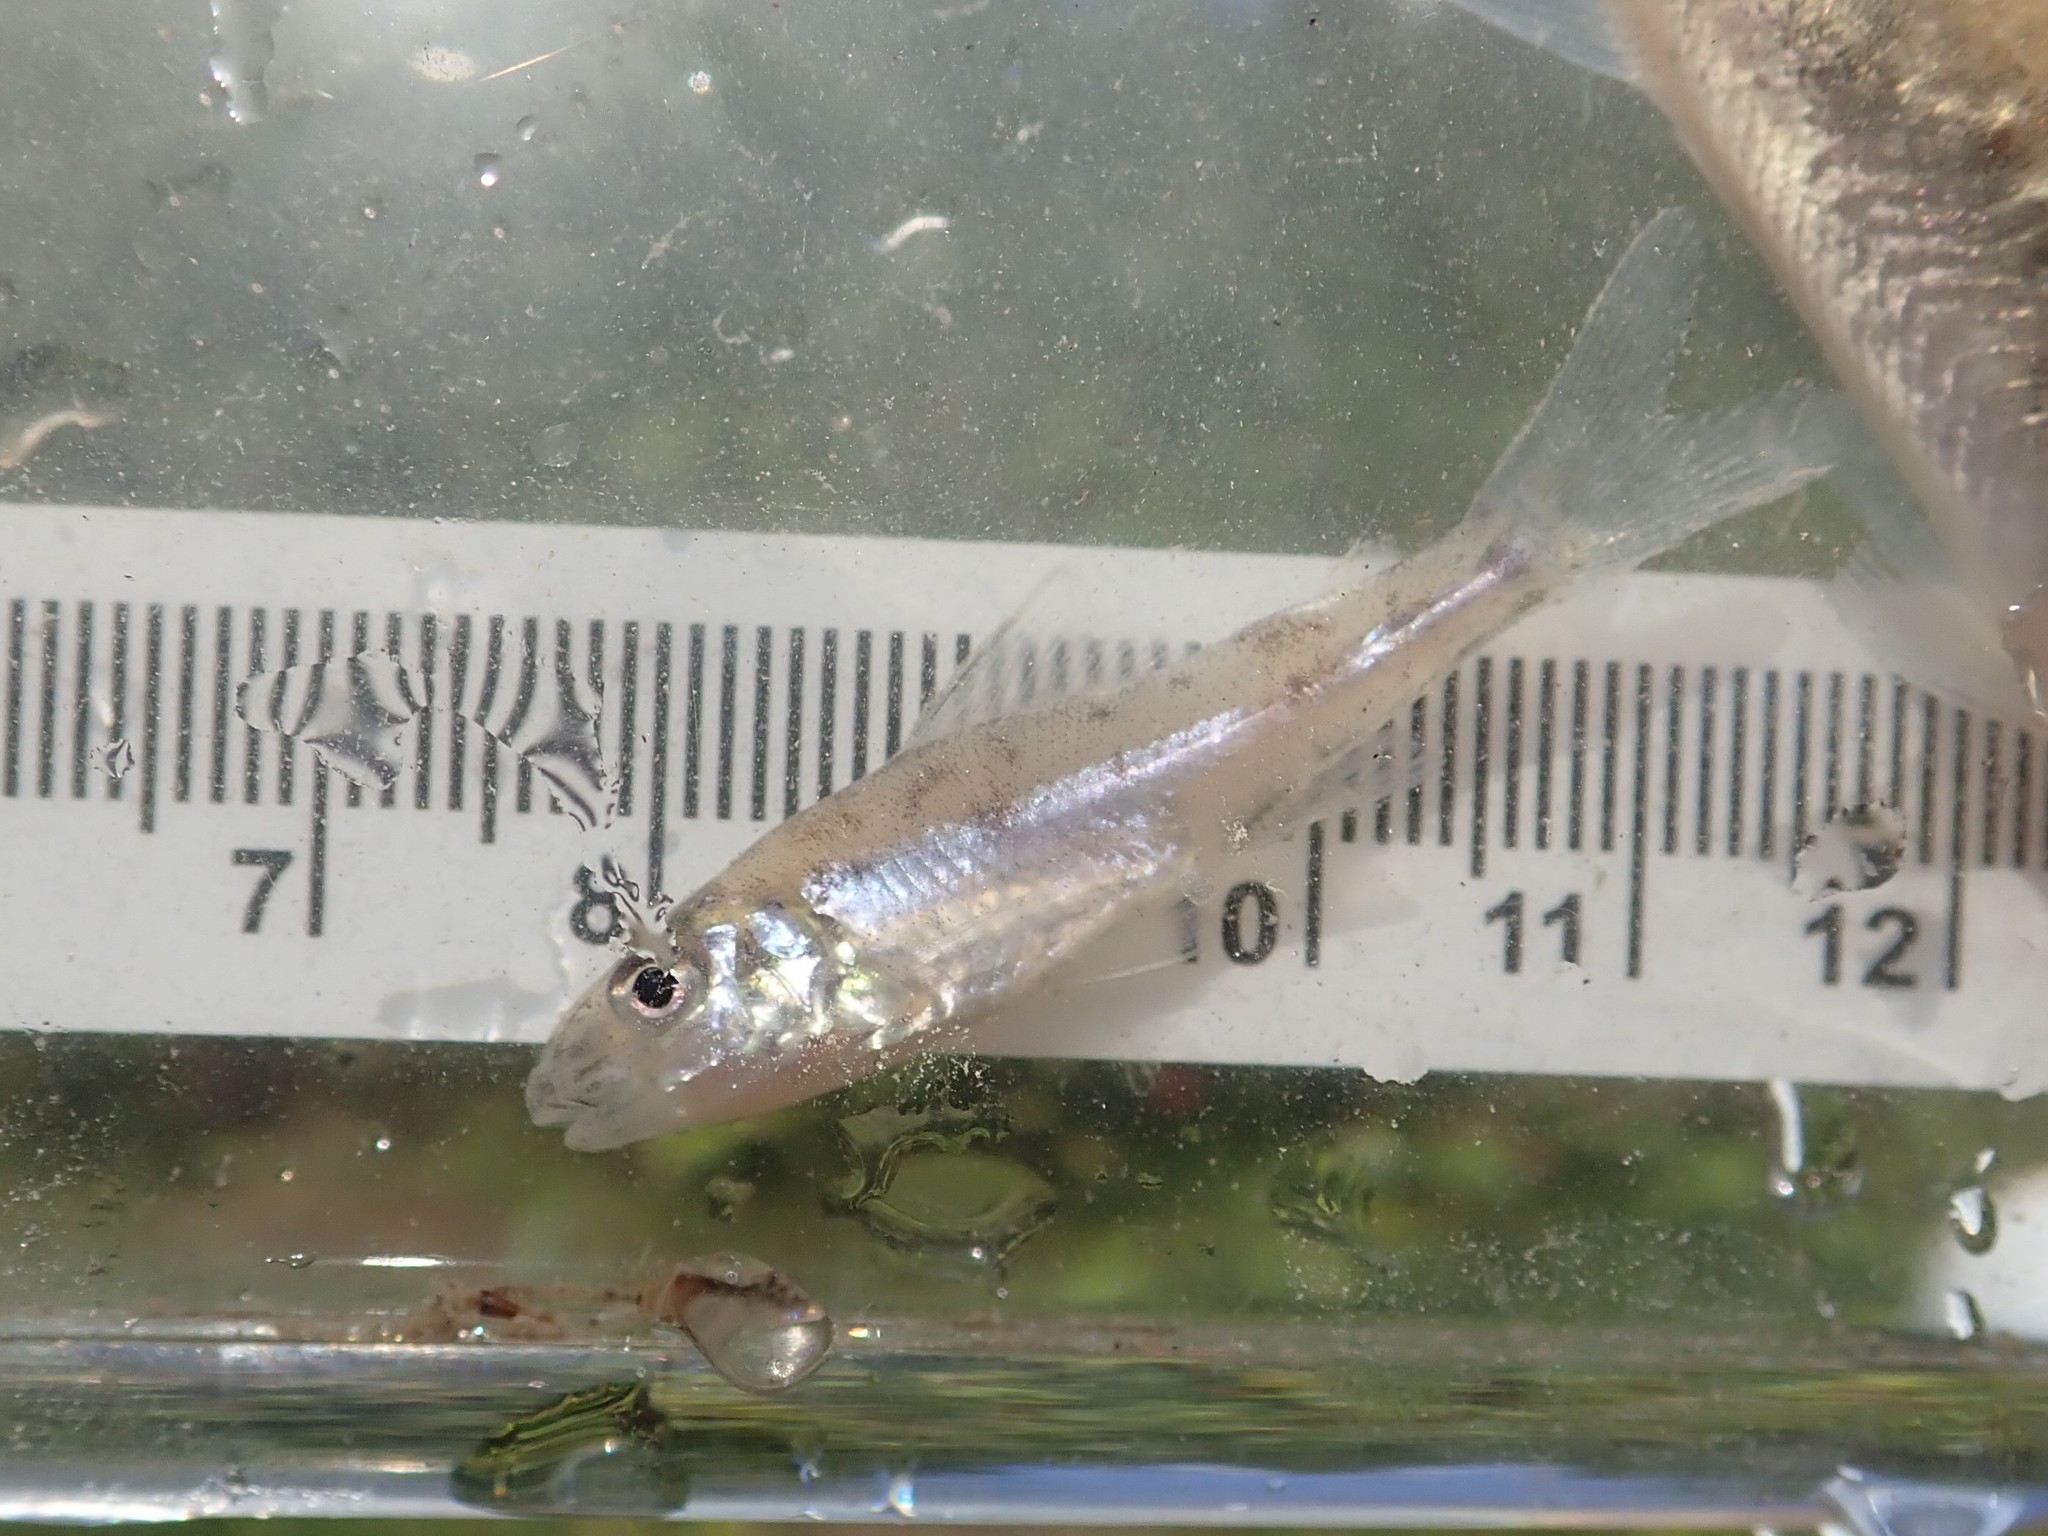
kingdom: Animalia
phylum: Chordata
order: Percopsiformes
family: Percopsidae
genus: Percopsis
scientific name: Percopsis omiscomaycus
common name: Trout-perch
